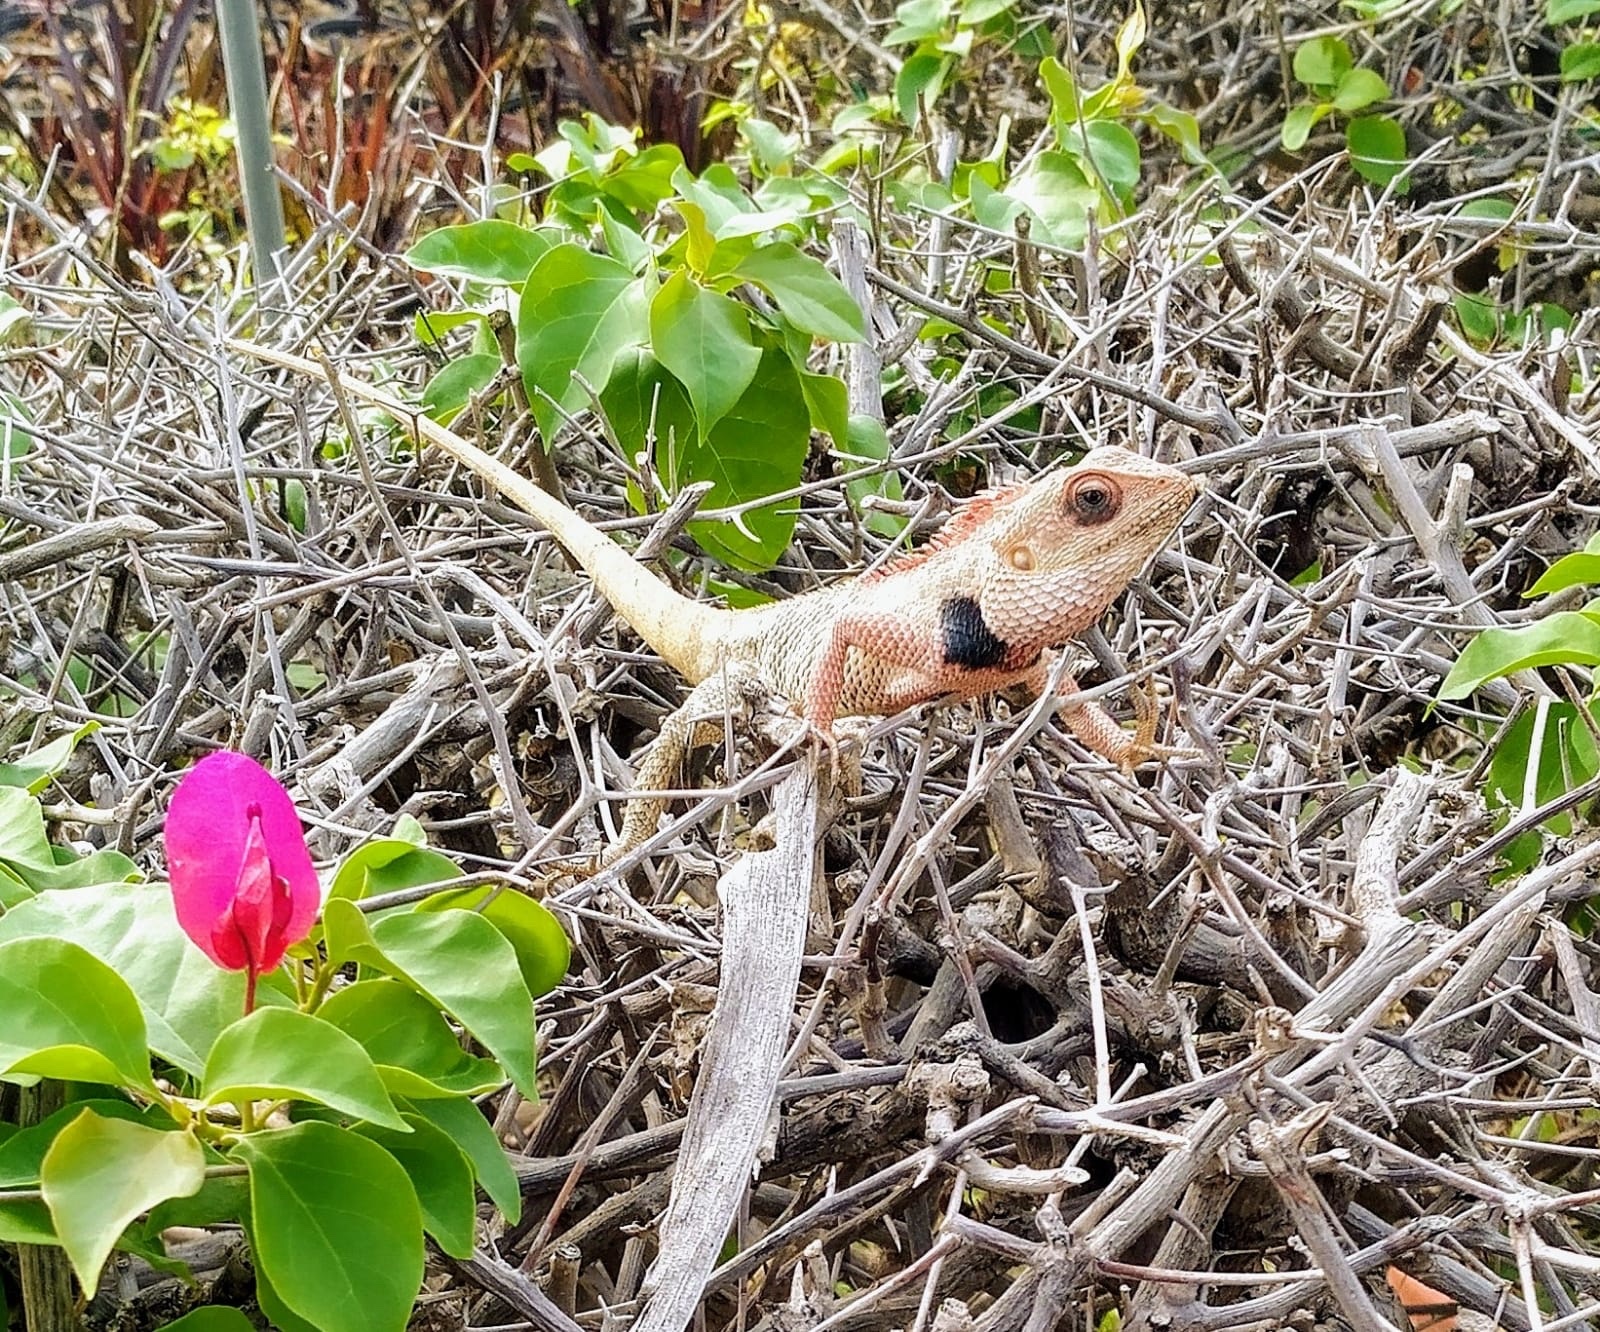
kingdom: Animalia
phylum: Chordata
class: Squamata
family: Agamidae
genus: Calotes
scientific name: Calotes versicolor
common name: Oriental garden lizard
